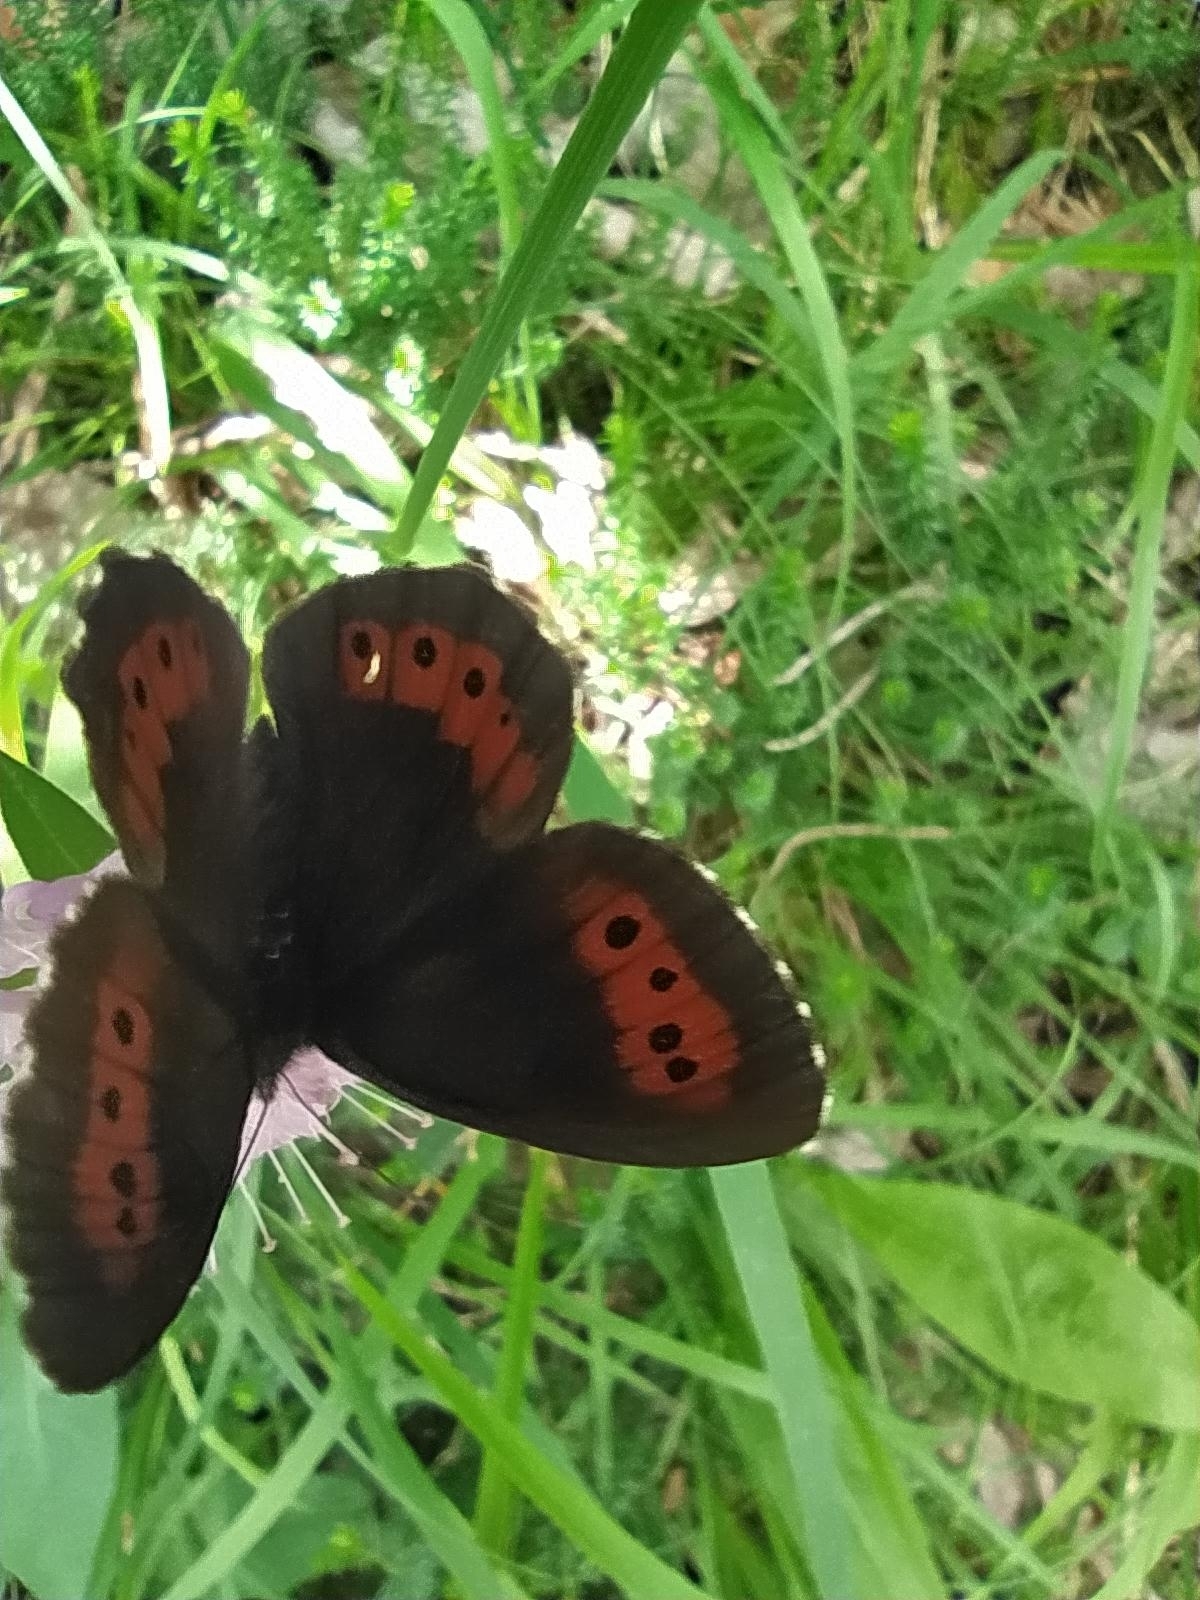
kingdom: Animalia
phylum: Arthropoda
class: Insecta
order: Lepidoptera
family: Nymphalidae
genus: Erebia
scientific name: Erebia ligea
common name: Arran brown
